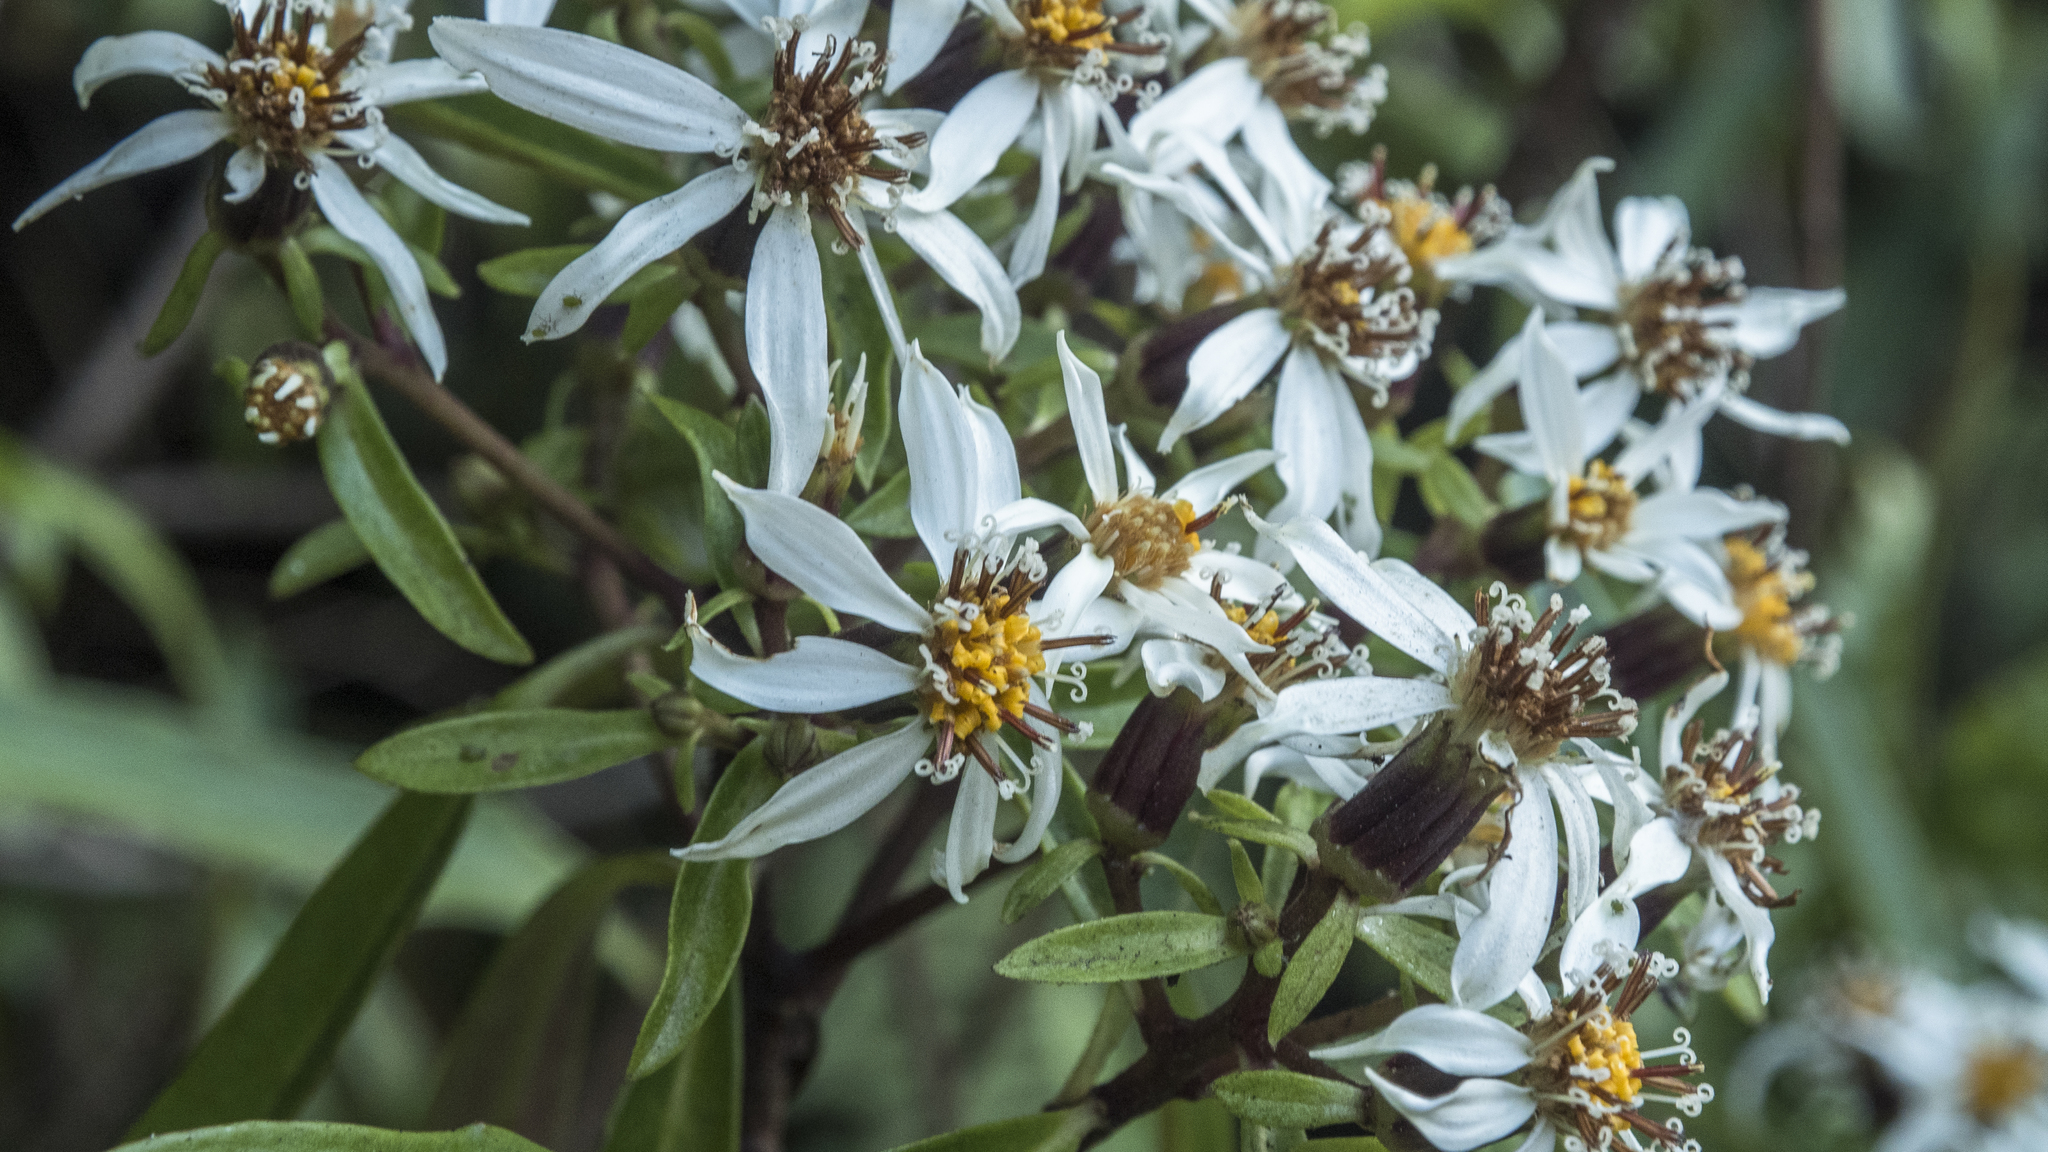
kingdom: Plantae
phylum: Tracheophyta
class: Magnoliopsida
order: Asterales
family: Asteraceae
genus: Brachyglottis
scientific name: Brachyglottis kirkii
